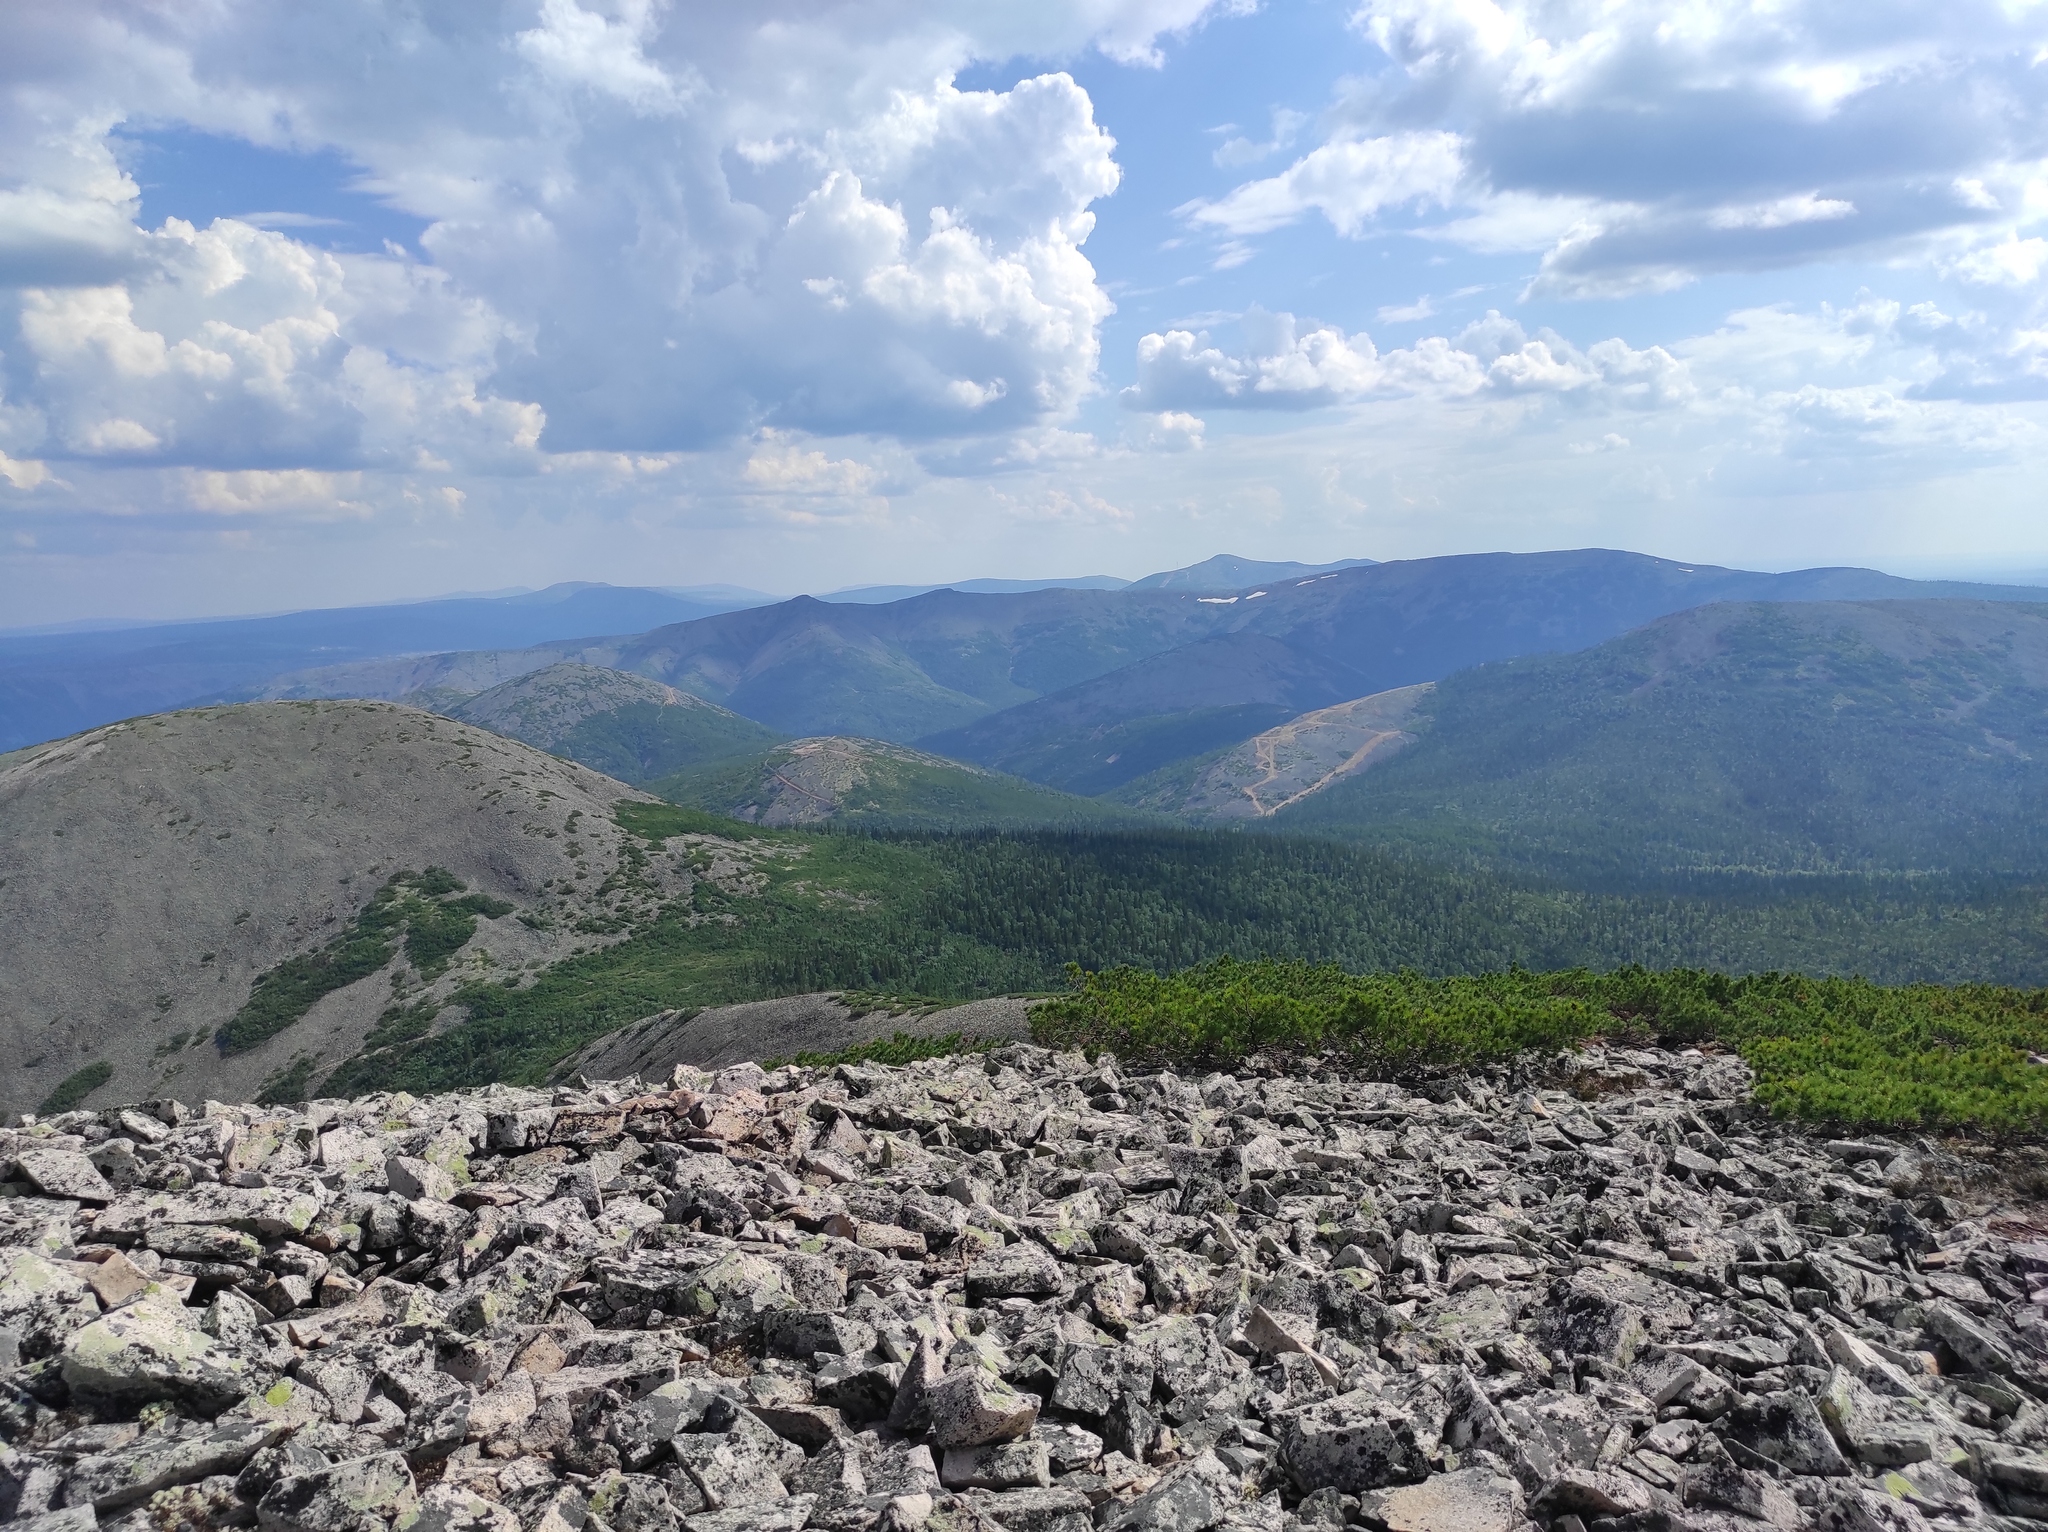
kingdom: Plantae
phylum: Tracheophyta
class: Pinopsida
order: Pinales
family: Pinaceae
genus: Pinus
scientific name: Pinus pumila
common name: Dwarf siberian pine
